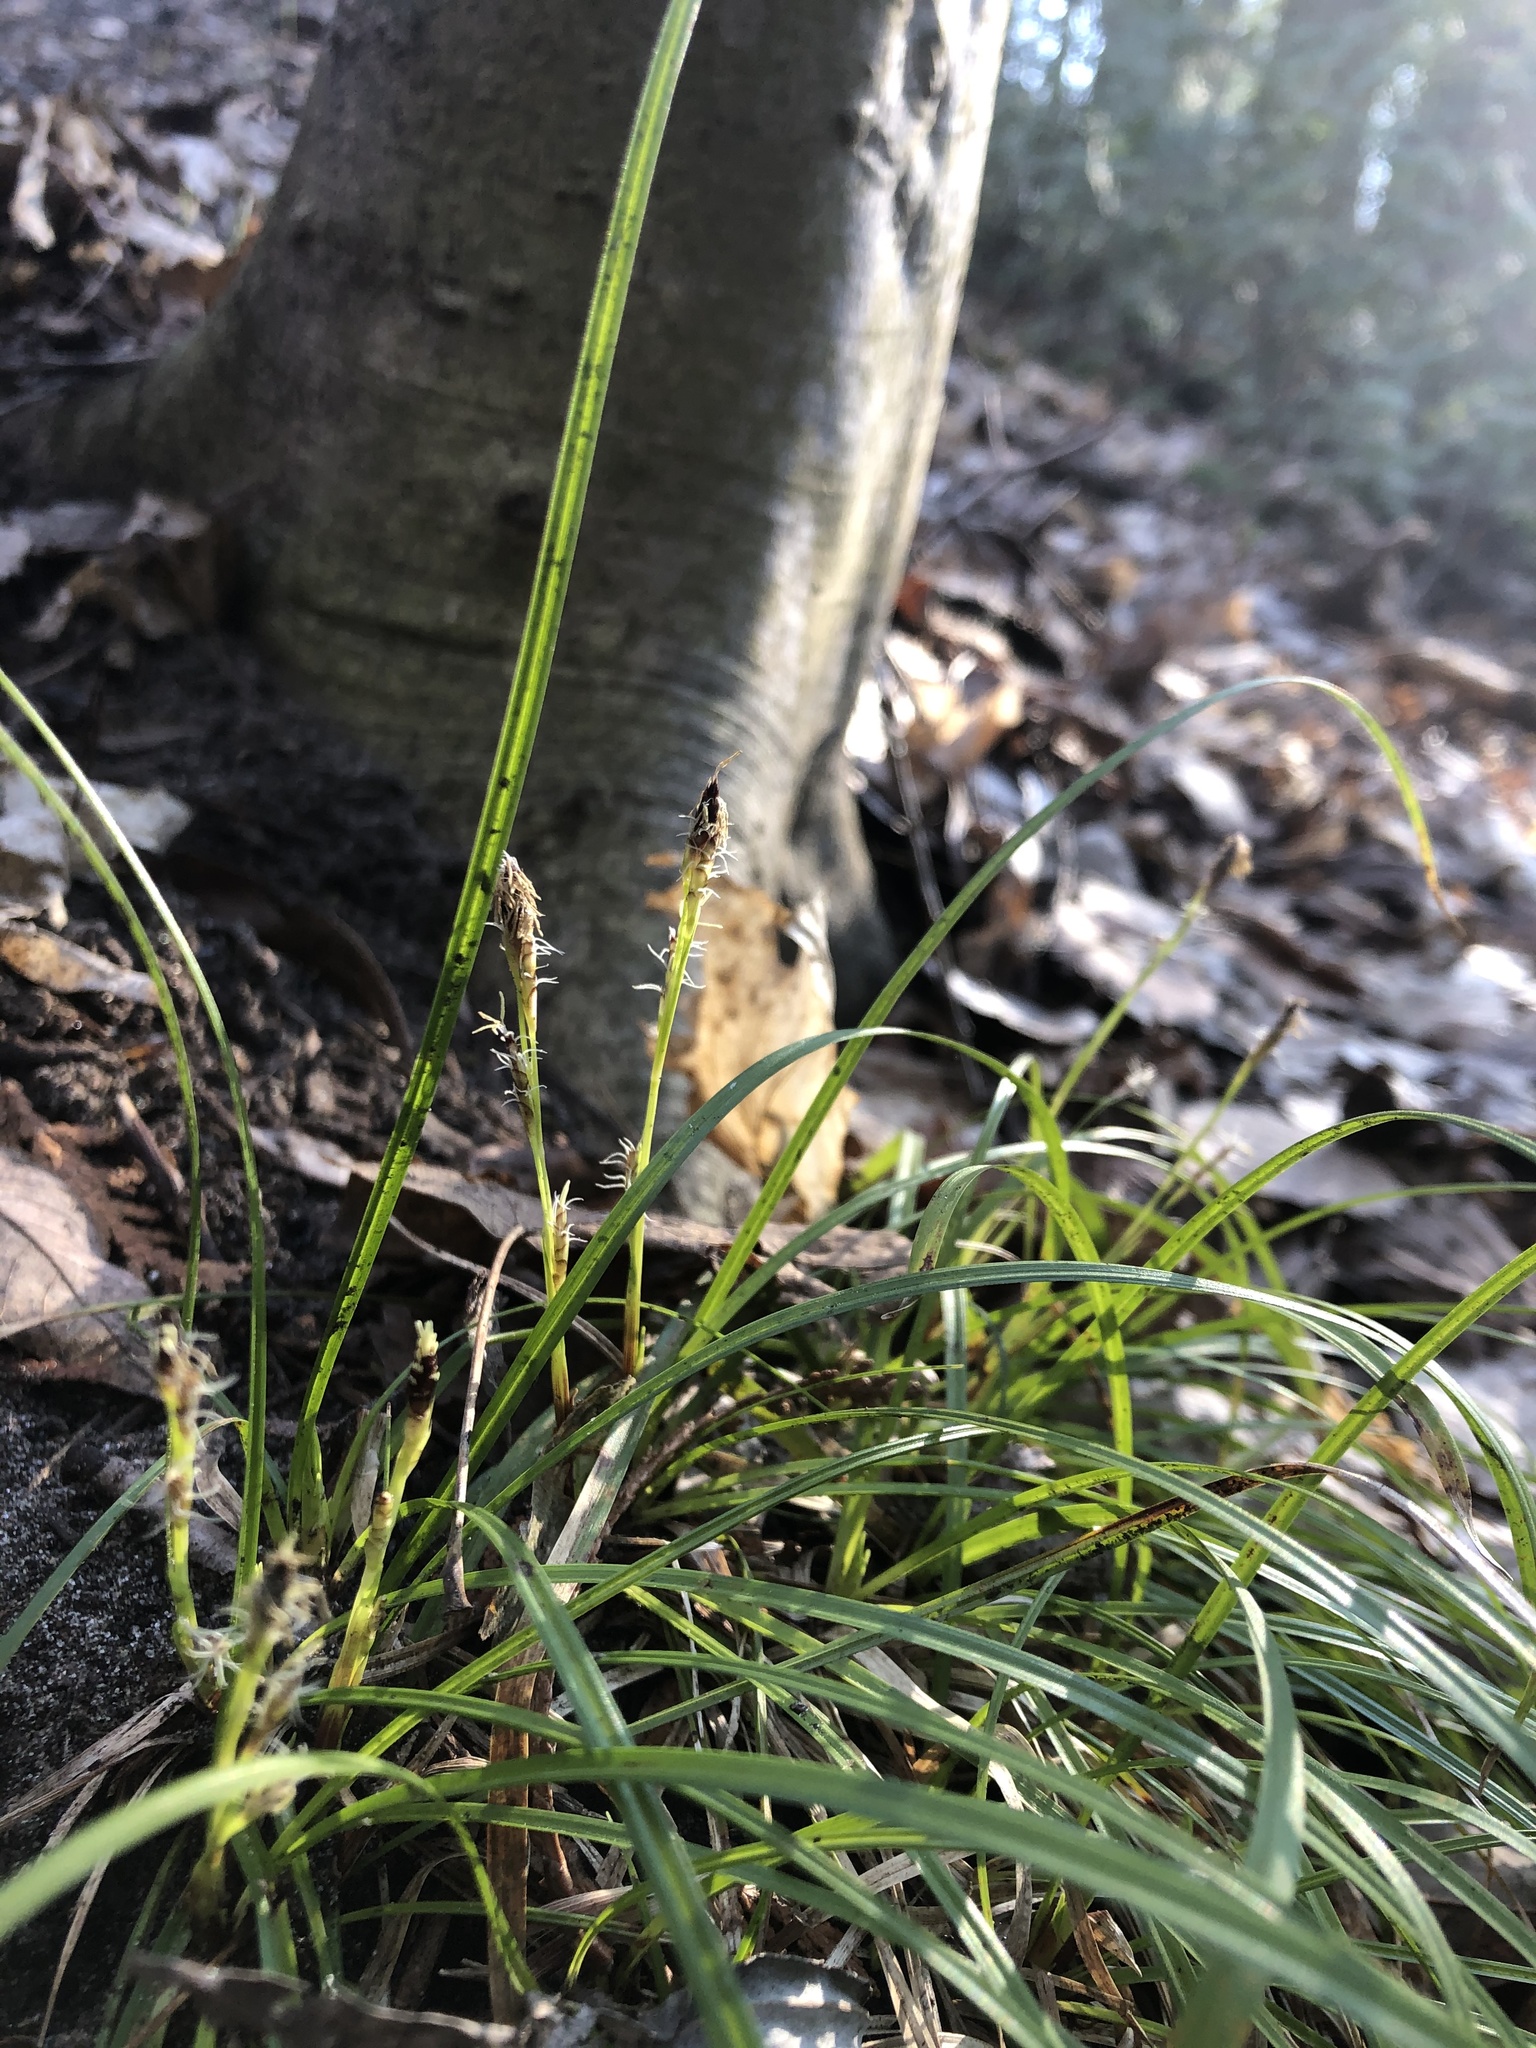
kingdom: Plantae
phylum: Tracheophyta
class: Liliopsida
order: Poales
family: Cyperaceae
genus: Carex
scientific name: Carex pedunculata
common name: Pedunculate sedge
